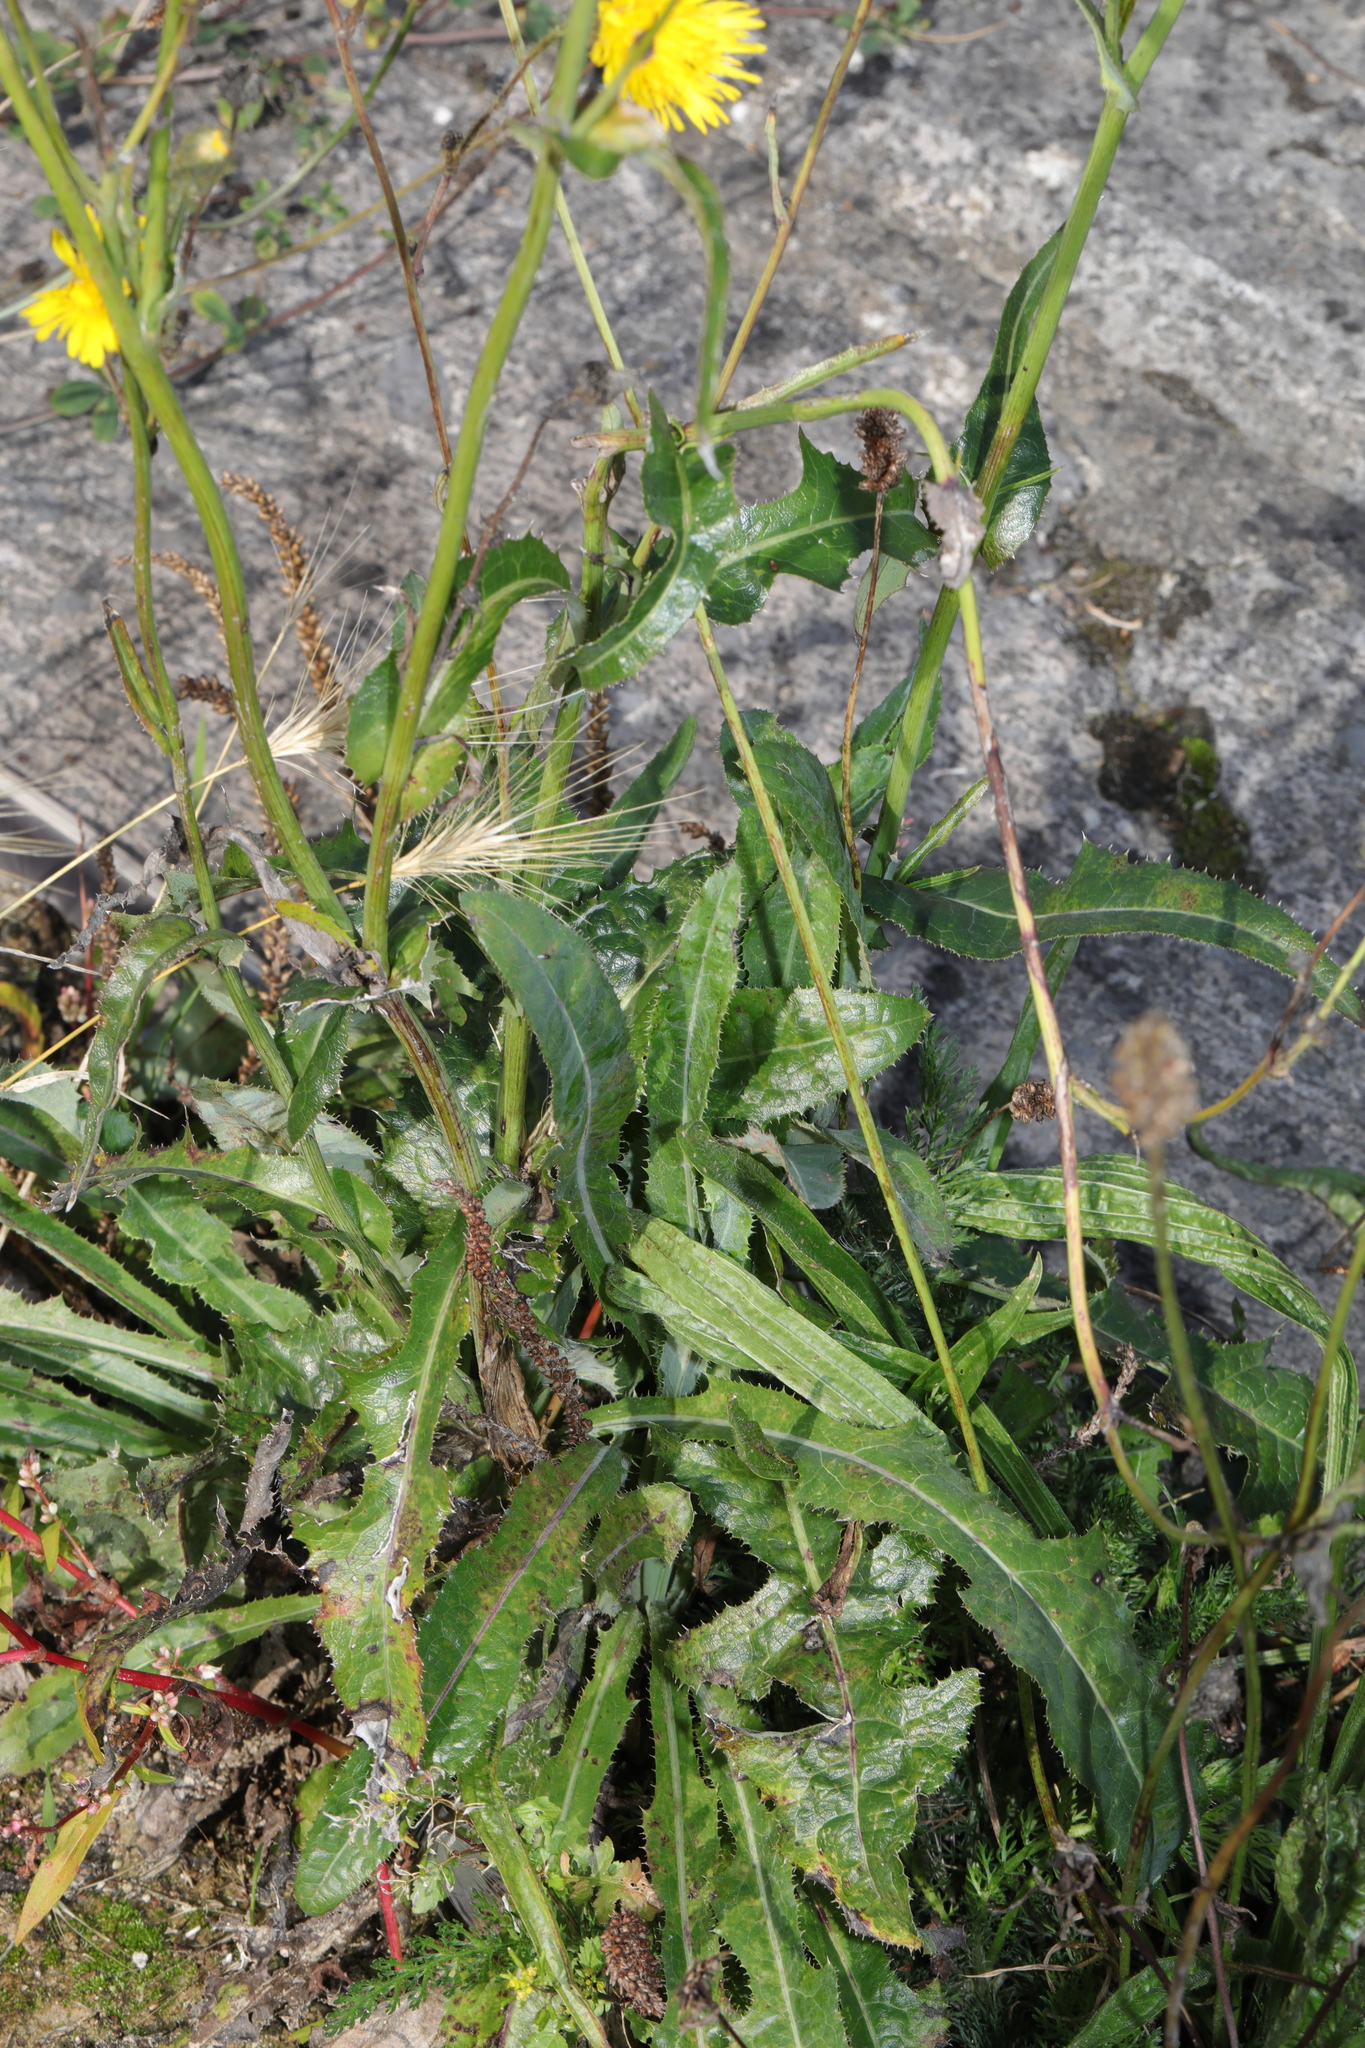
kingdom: Plantae
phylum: Tracheophyta
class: Magnoliopsida
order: Asterales
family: Asteraceae
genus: Sonchus
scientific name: Sonchus arvensis
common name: Perennial sow-thistle
